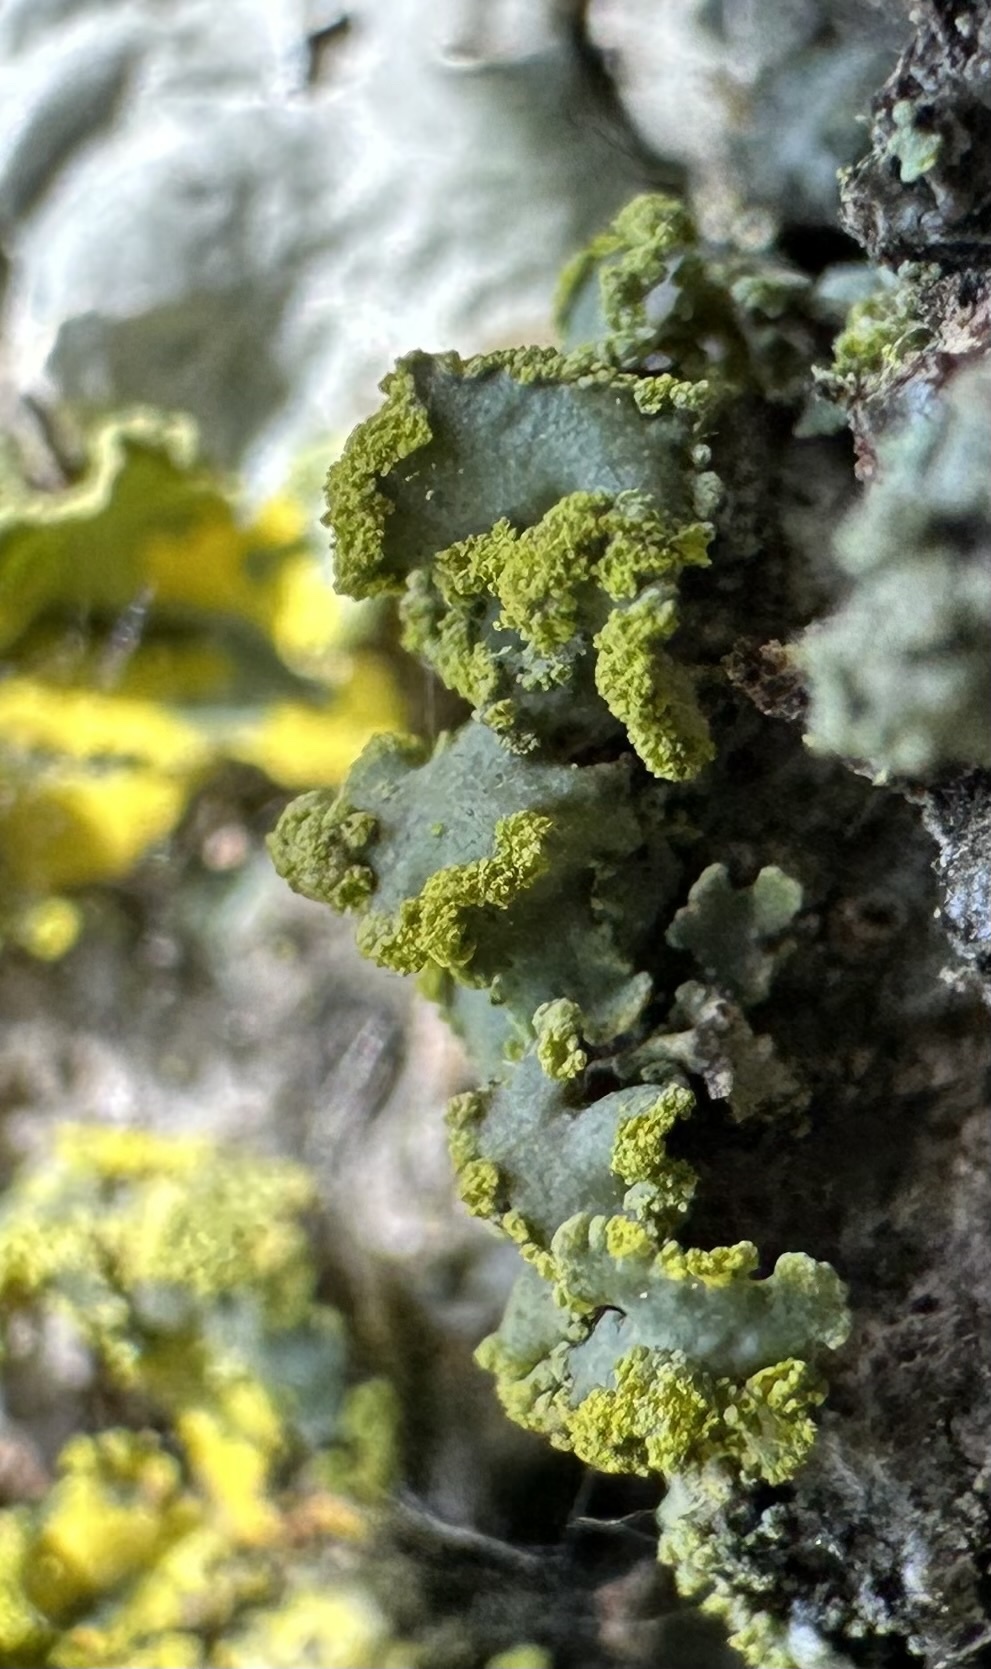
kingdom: Fungi
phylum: Ascomycota
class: Lecanoromycetes
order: Lecanorales
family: Parmeliaceae
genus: Vulpicida
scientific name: Vulpicida pinastri
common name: Powdered sunshine lichen
